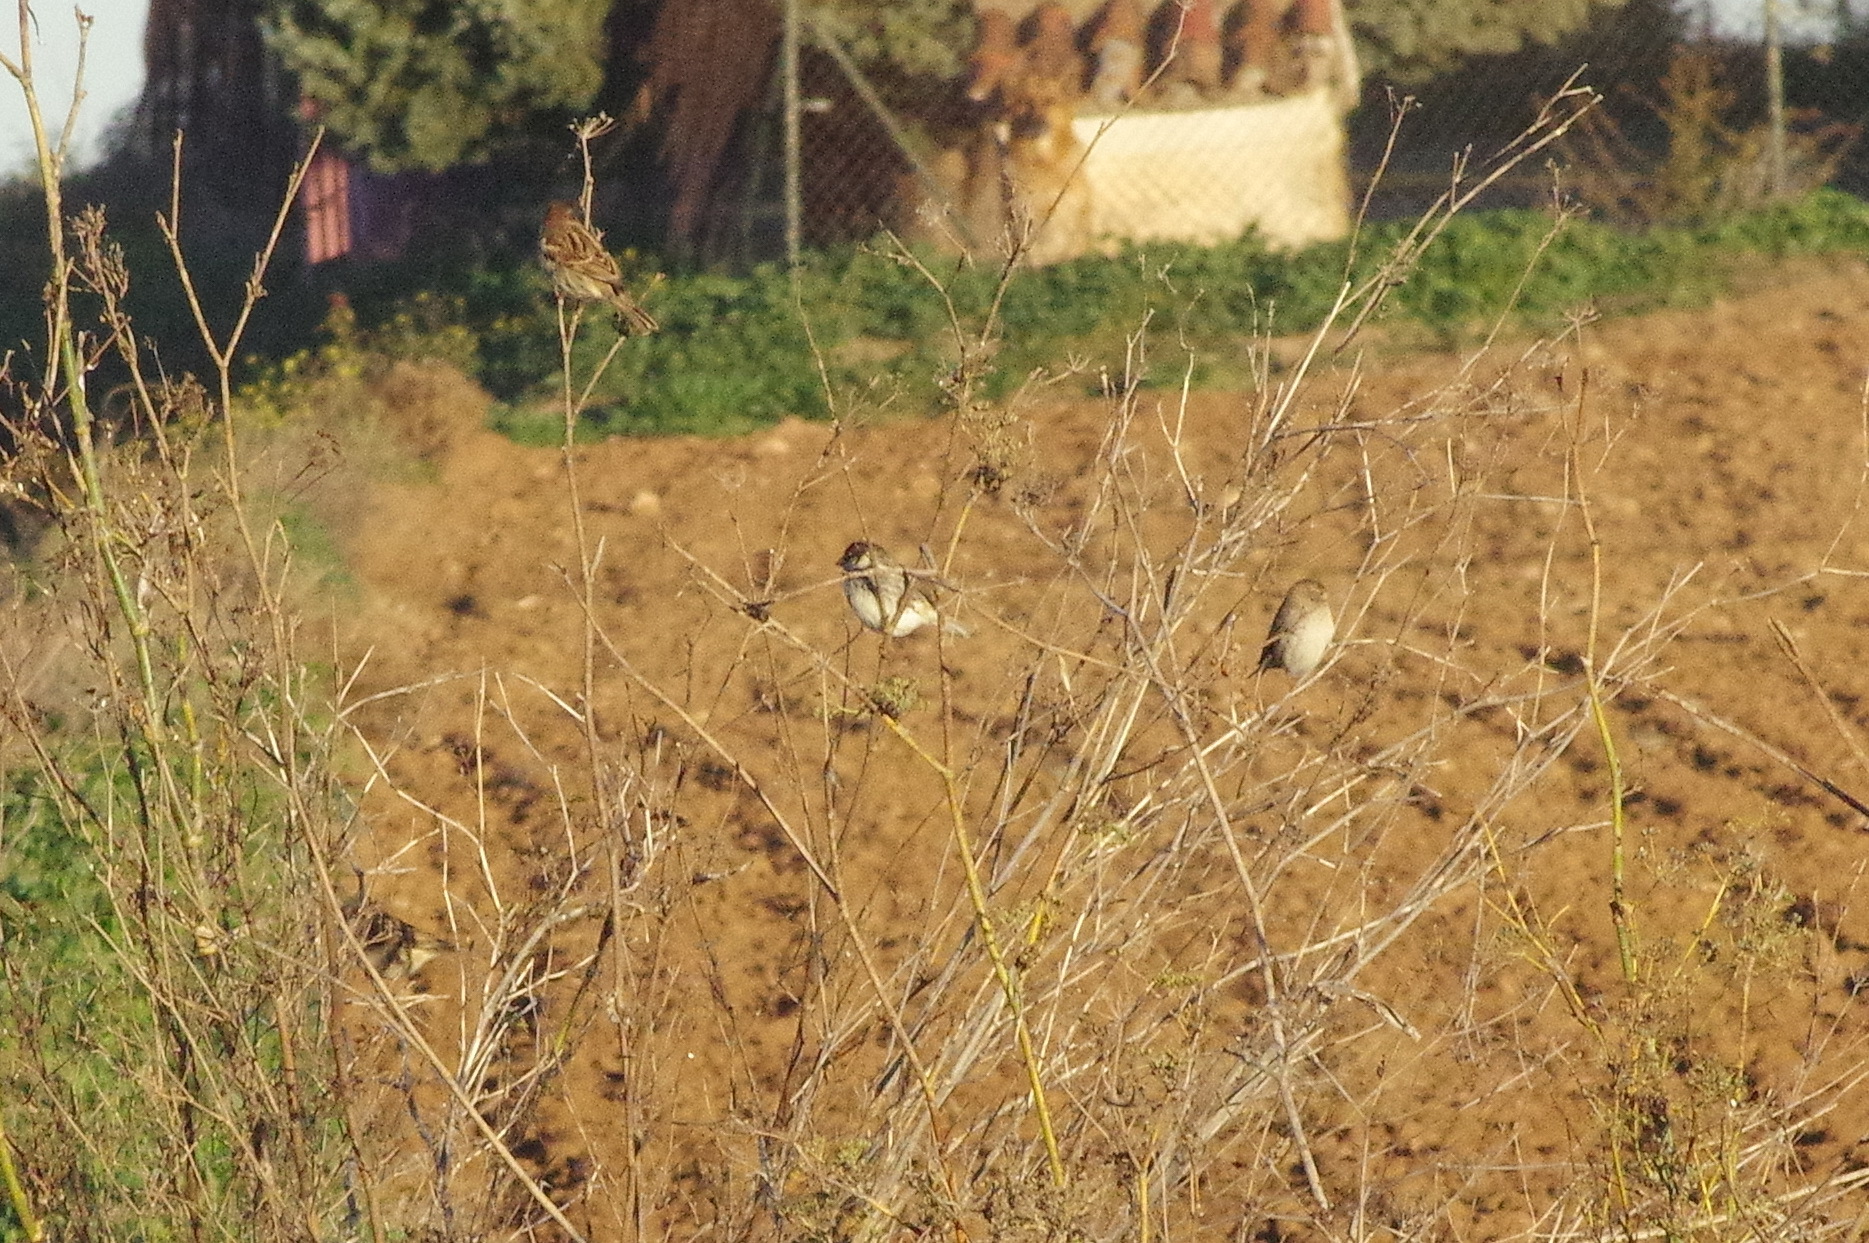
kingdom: Animalia
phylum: Chordata
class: Aves
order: Passeriformes
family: Passeridae
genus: Passer
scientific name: Passer hispaniolensis
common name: Spanish sparrow
